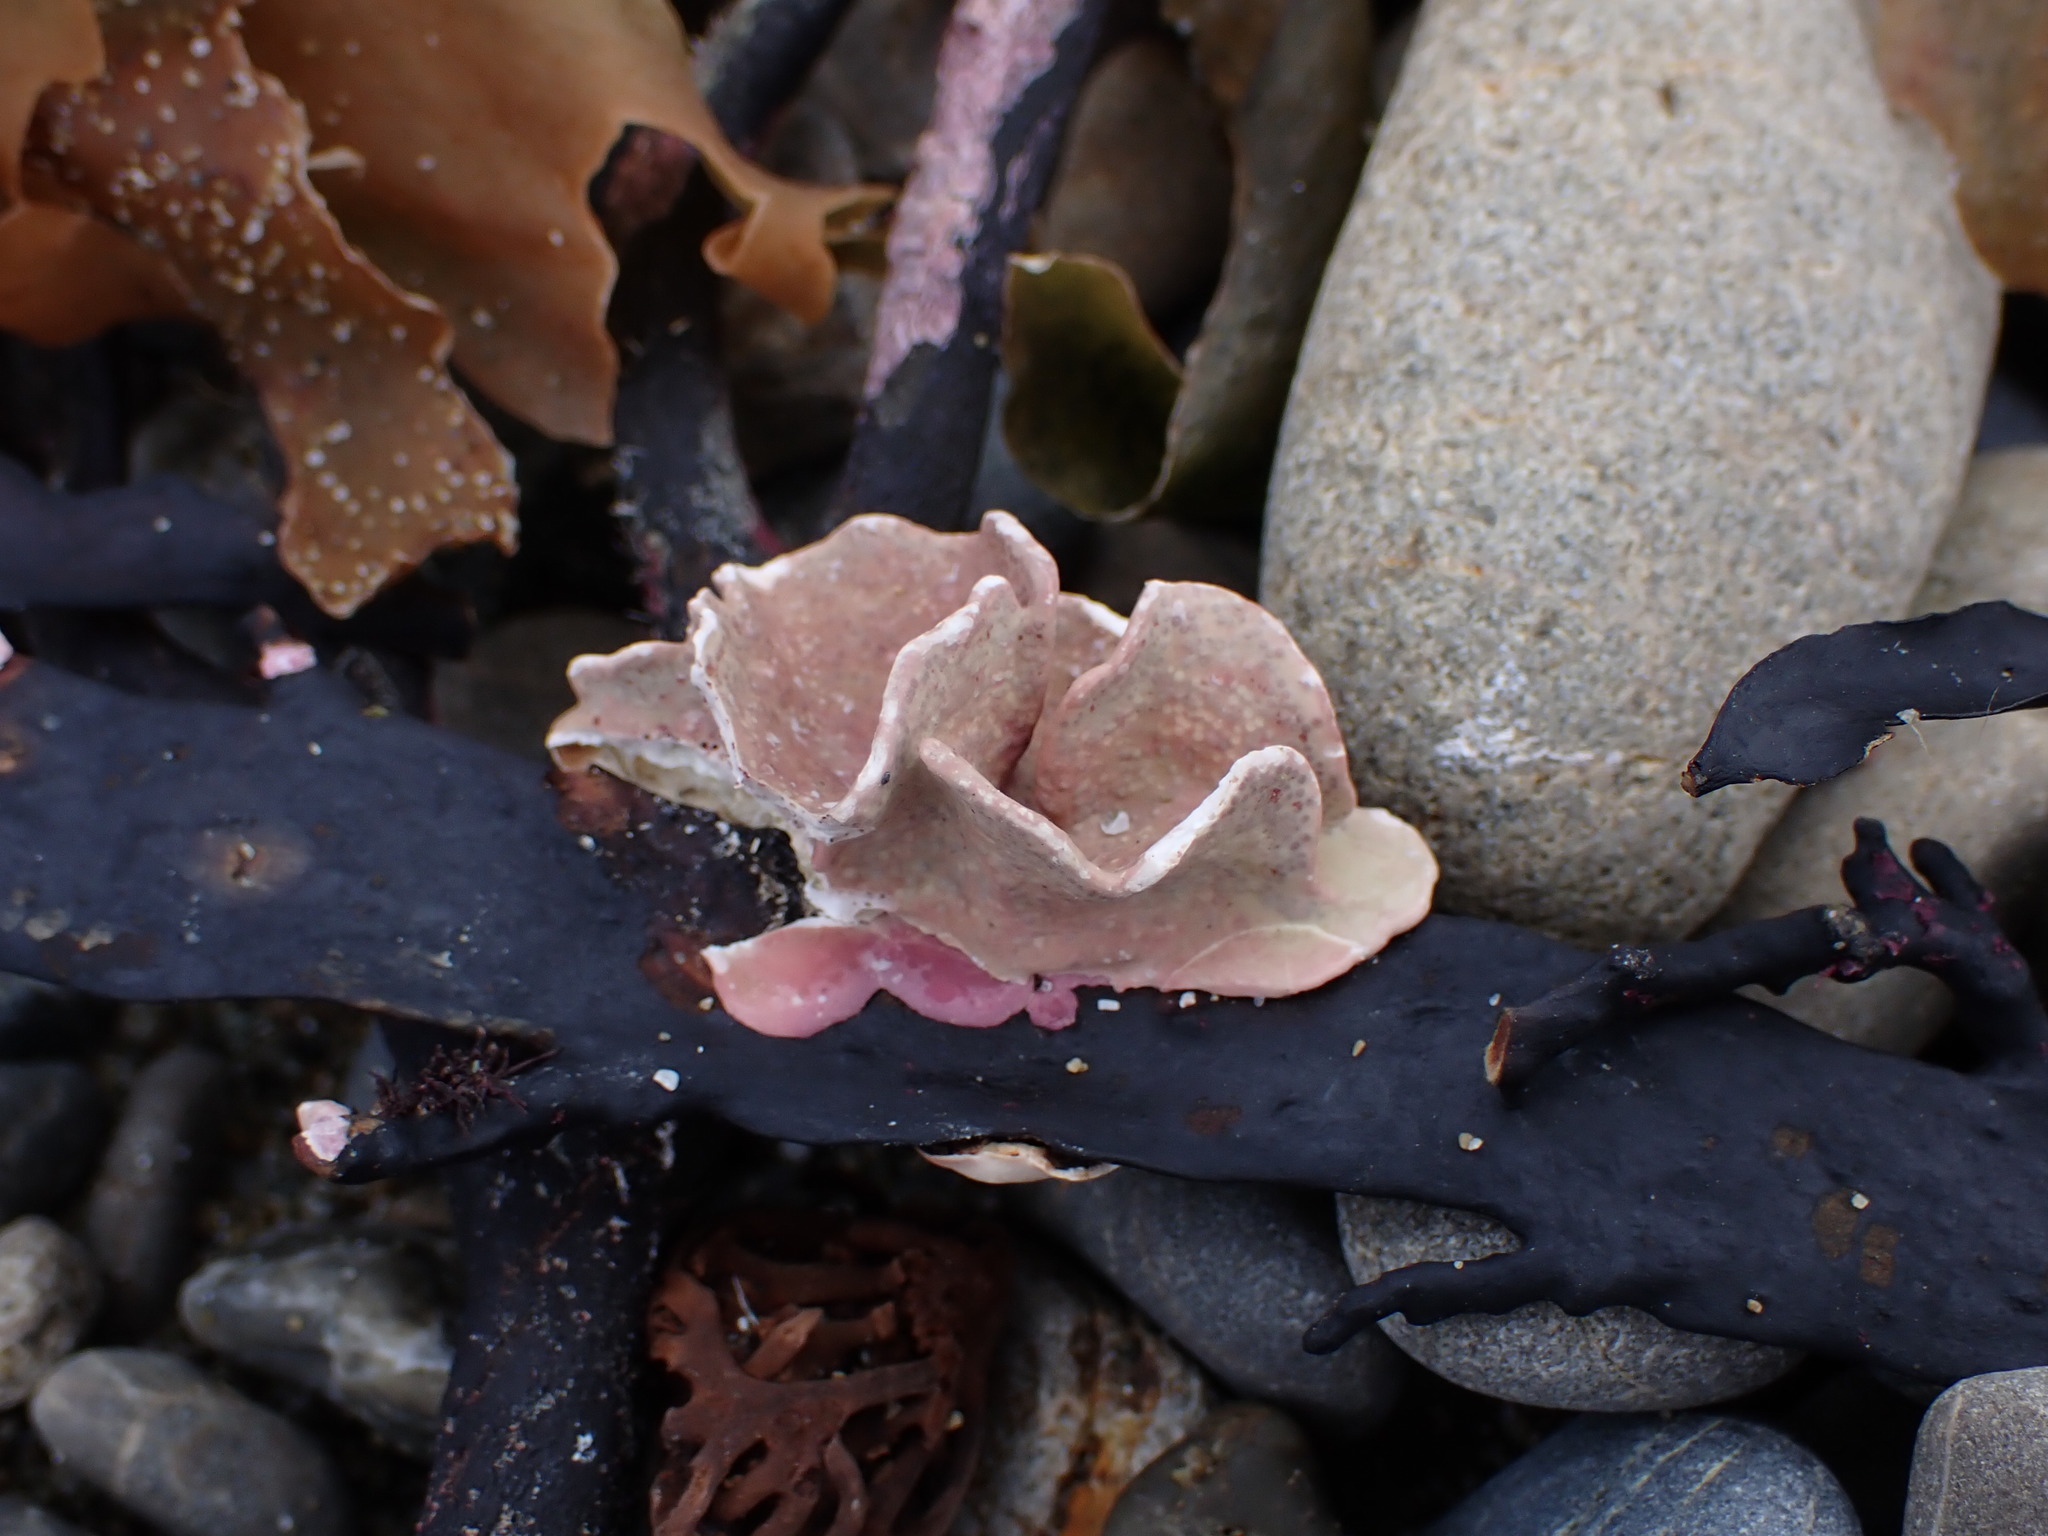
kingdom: Plantae
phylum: Rhodophyta
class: Florideophyceae
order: Corallinales
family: Lithophyllaceae
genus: Lithophyllum
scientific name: Lithophyllum carpophylli
